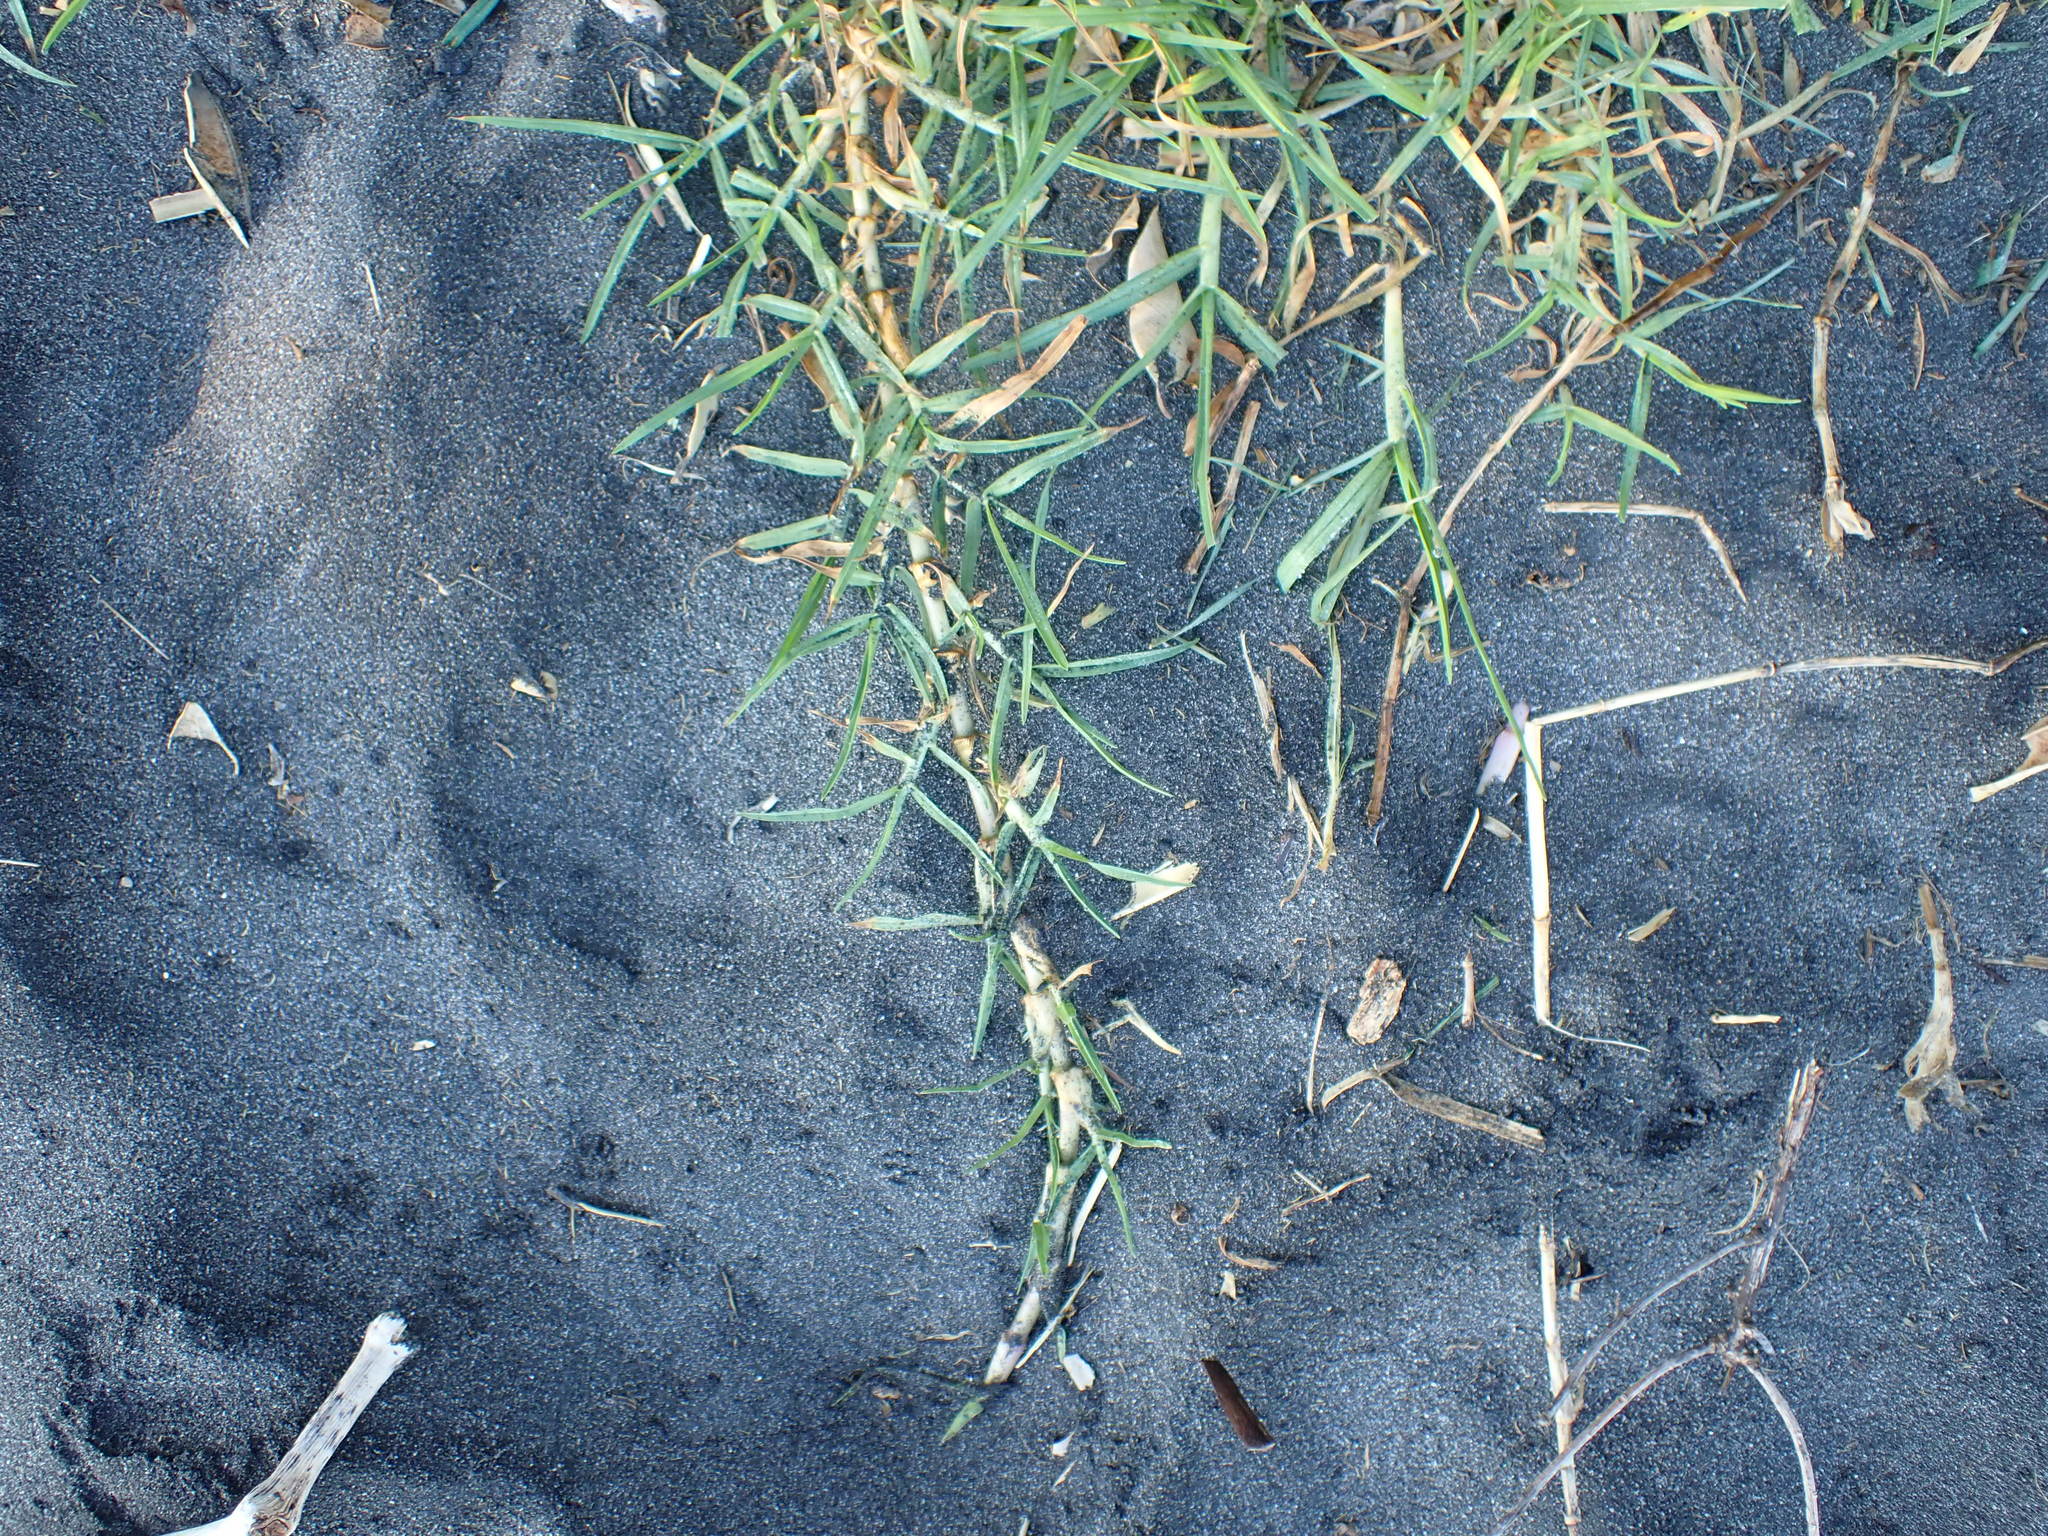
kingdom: Plantae
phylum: Tracheophyta
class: Liliopsida
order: Poales
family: Poaceae
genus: Cenchrus
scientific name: Cenchrus clandestinus
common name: Kikuyugrass
